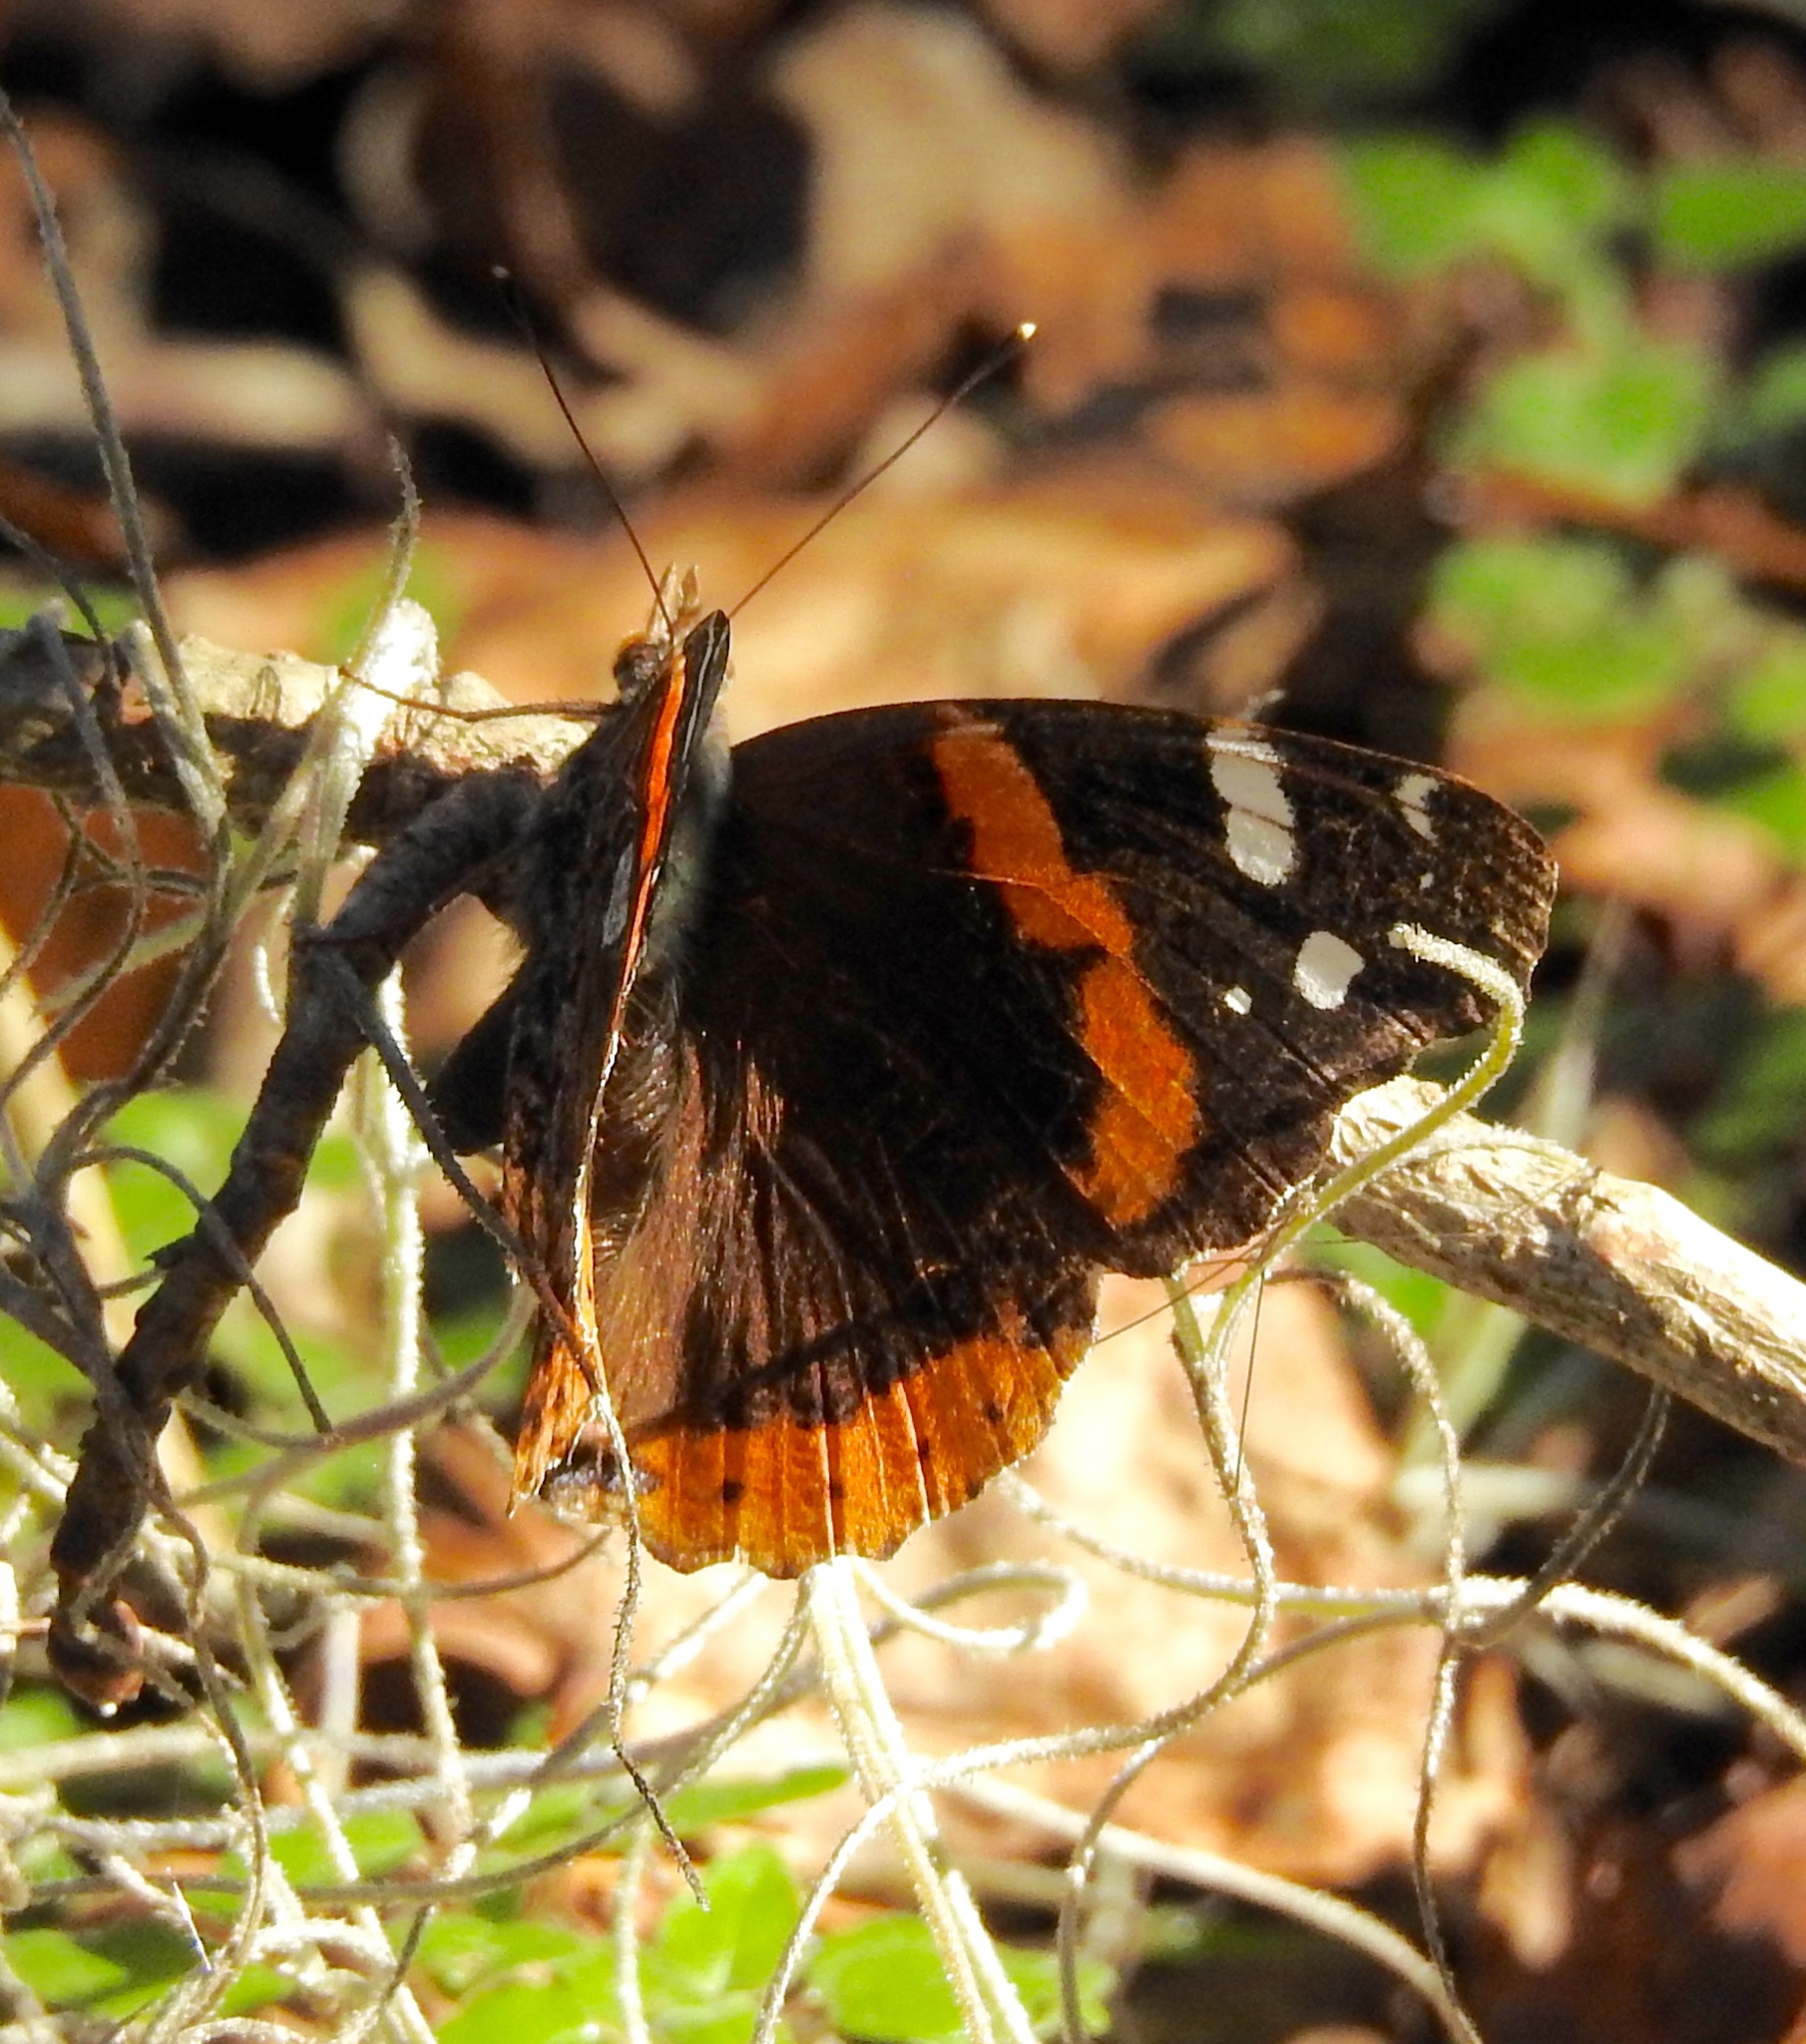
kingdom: Animalia
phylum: Arthropoda
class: Insecta
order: Lepidoptera
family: Nymphalidae
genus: Vanessa
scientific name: Vanessa atalanta
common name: Red admiral
